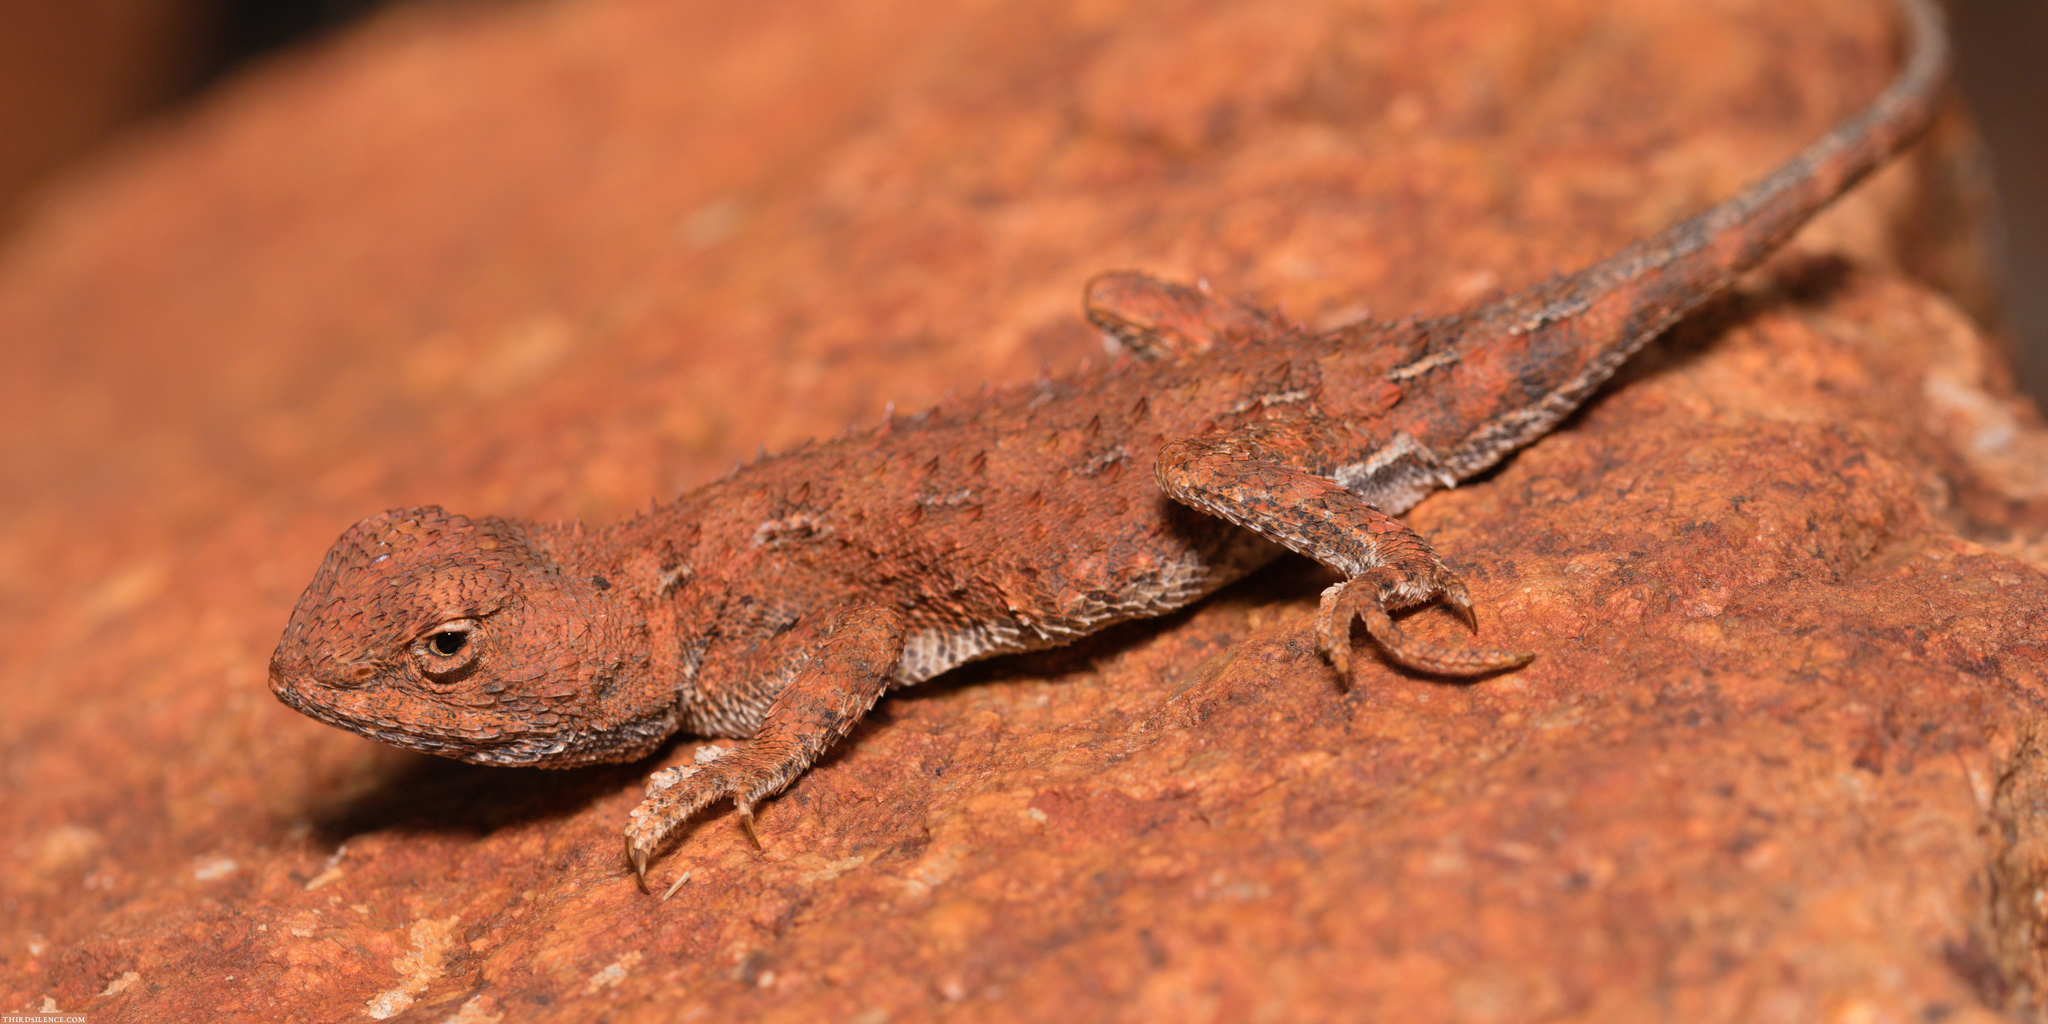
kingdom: Animalia
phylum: Chordata
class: Squamata
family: Agamidae
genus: Tympanocryptis
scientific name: Tympanocryptis centralis
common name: Central australian earless dragon
